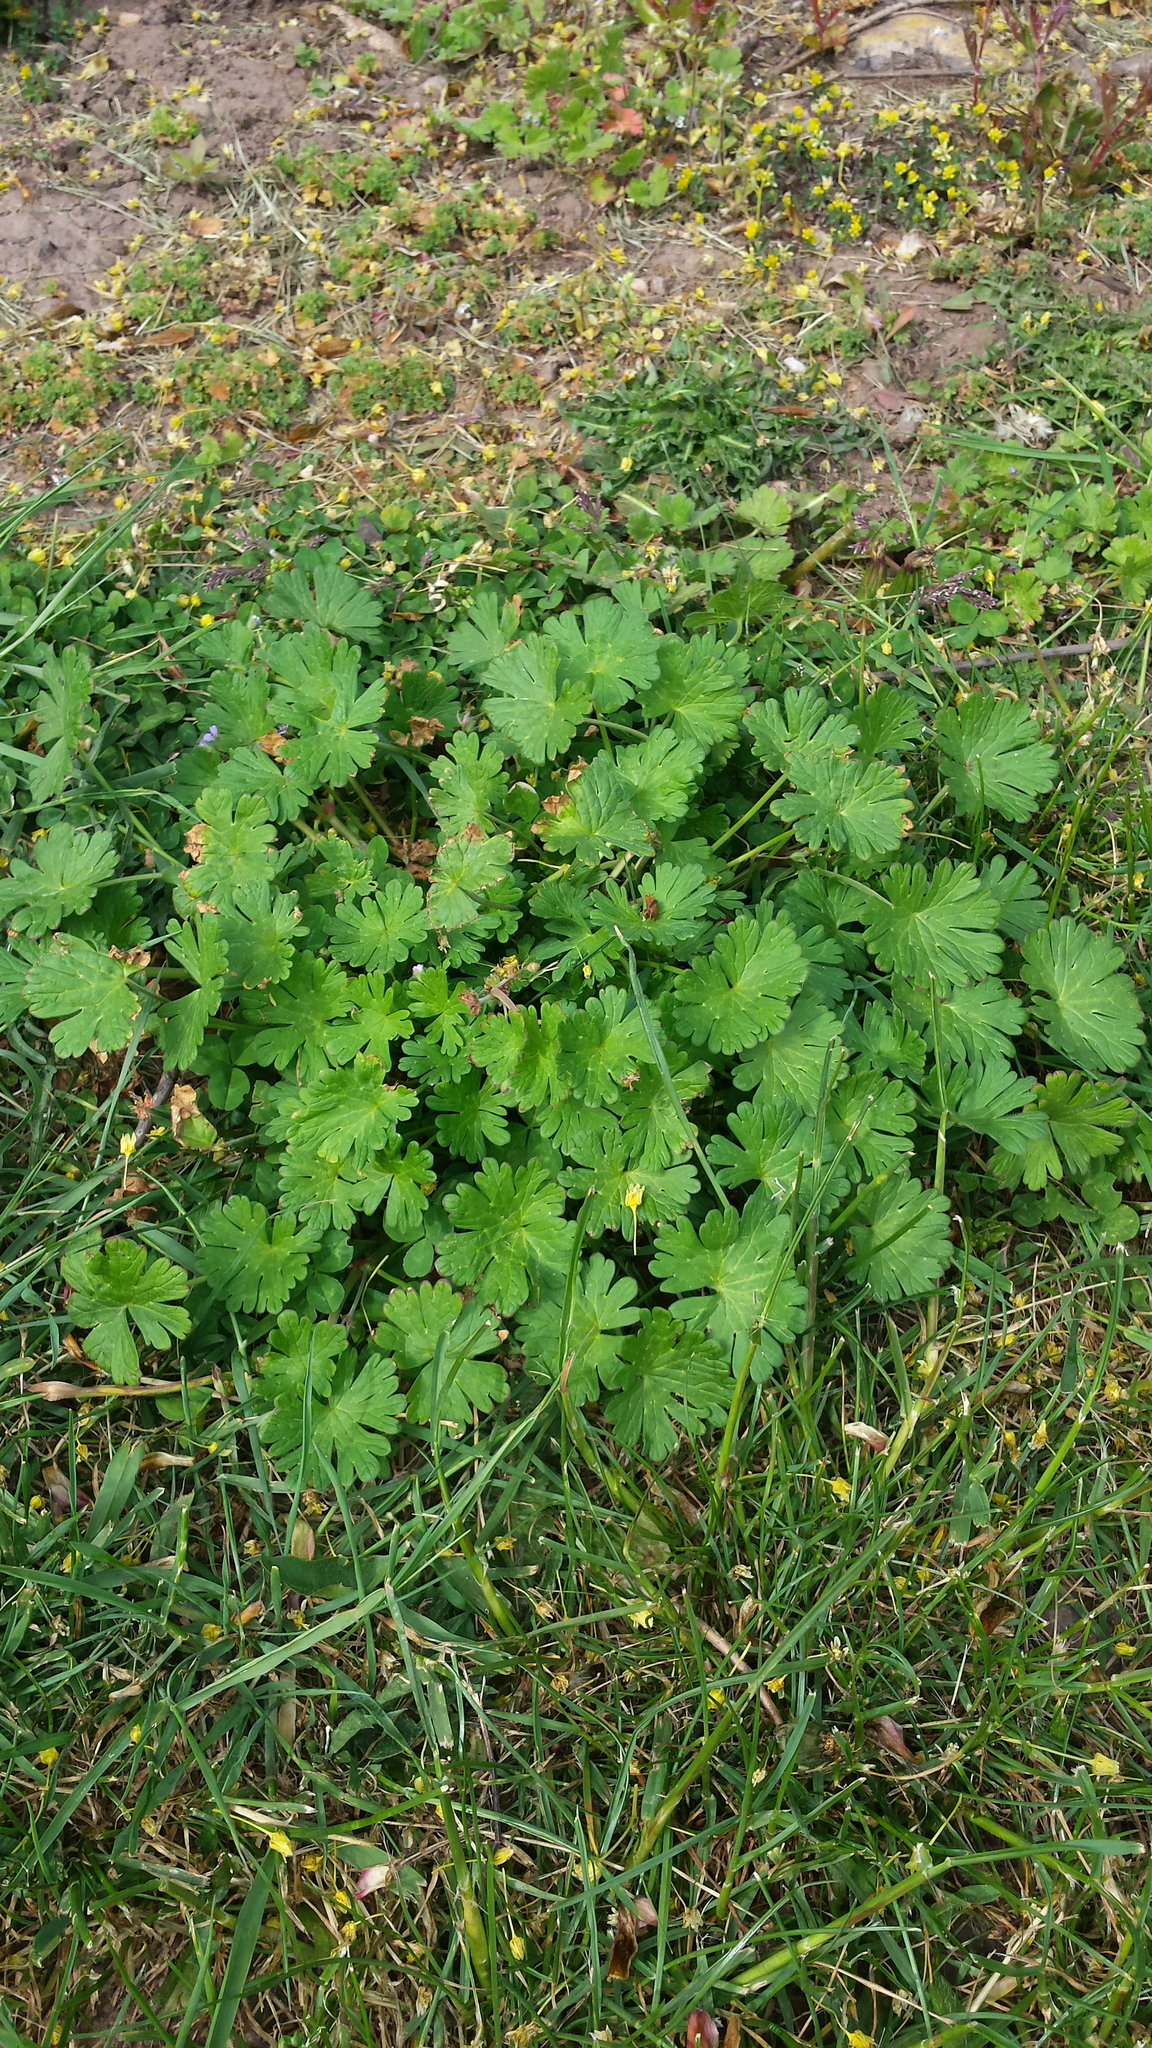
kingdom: Plantae
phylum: Tracheophyta
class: Magnoliopsida
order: Geraniales
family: Geraniaceae
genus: Geranium
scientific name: Geranium pusillum
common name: Small geranium
